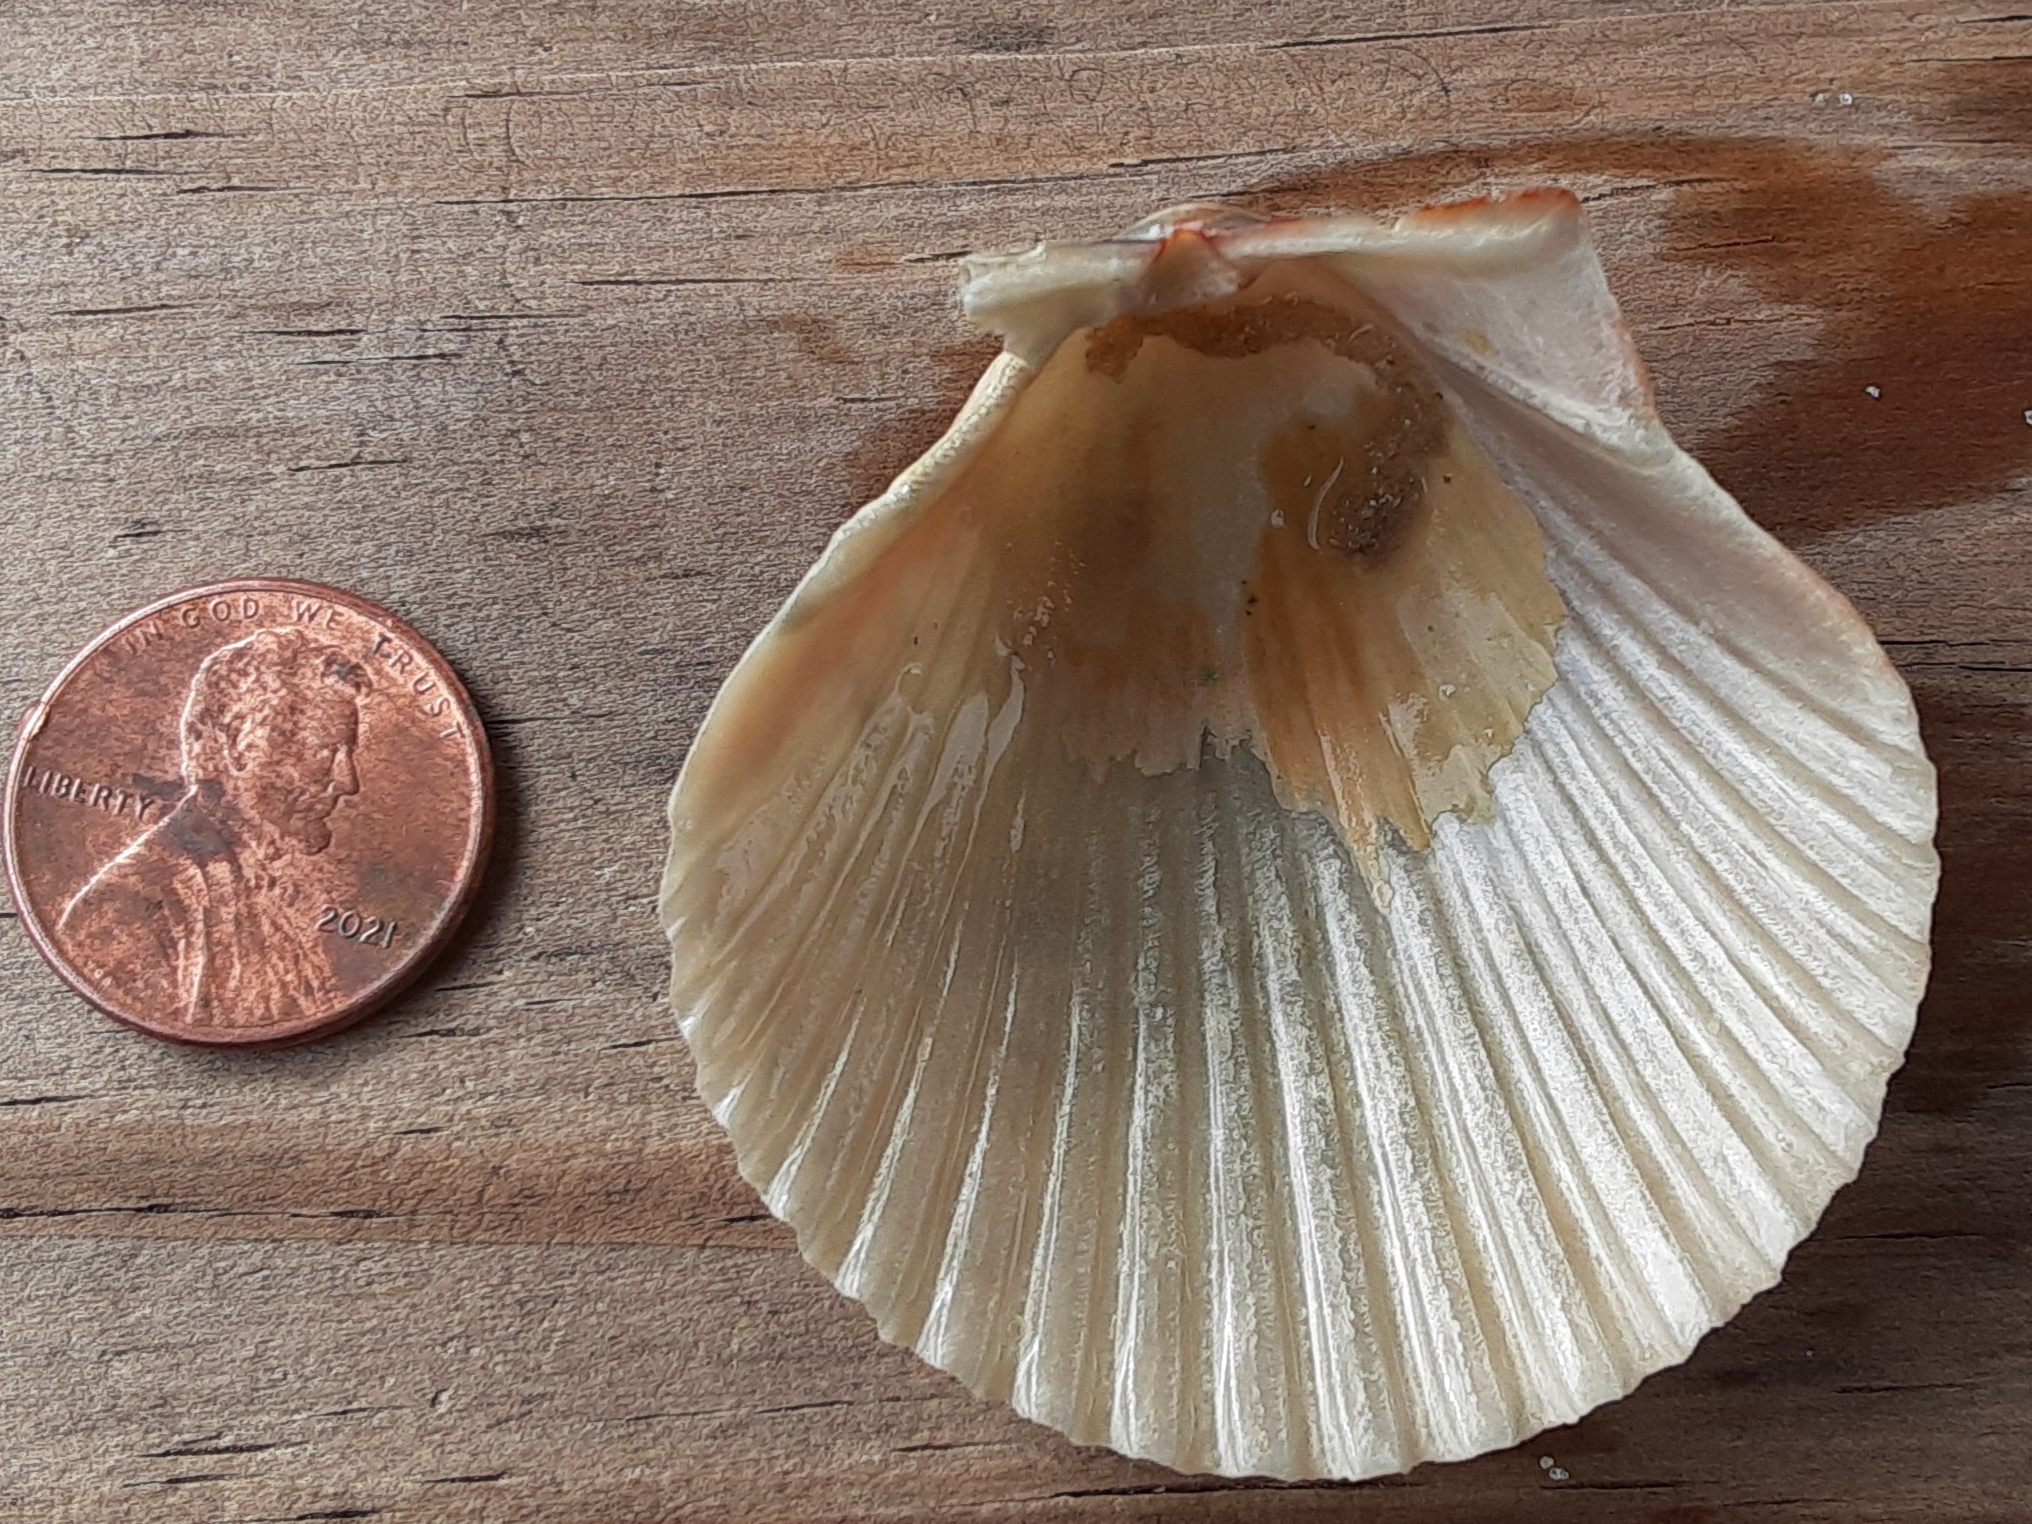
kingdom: Animalia
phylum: Mollusca
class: Bivalvia
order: Pectinida
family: Pectinidae
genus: Argopecten
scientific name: Argopecten irradians
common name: Atlantic bay scallop
